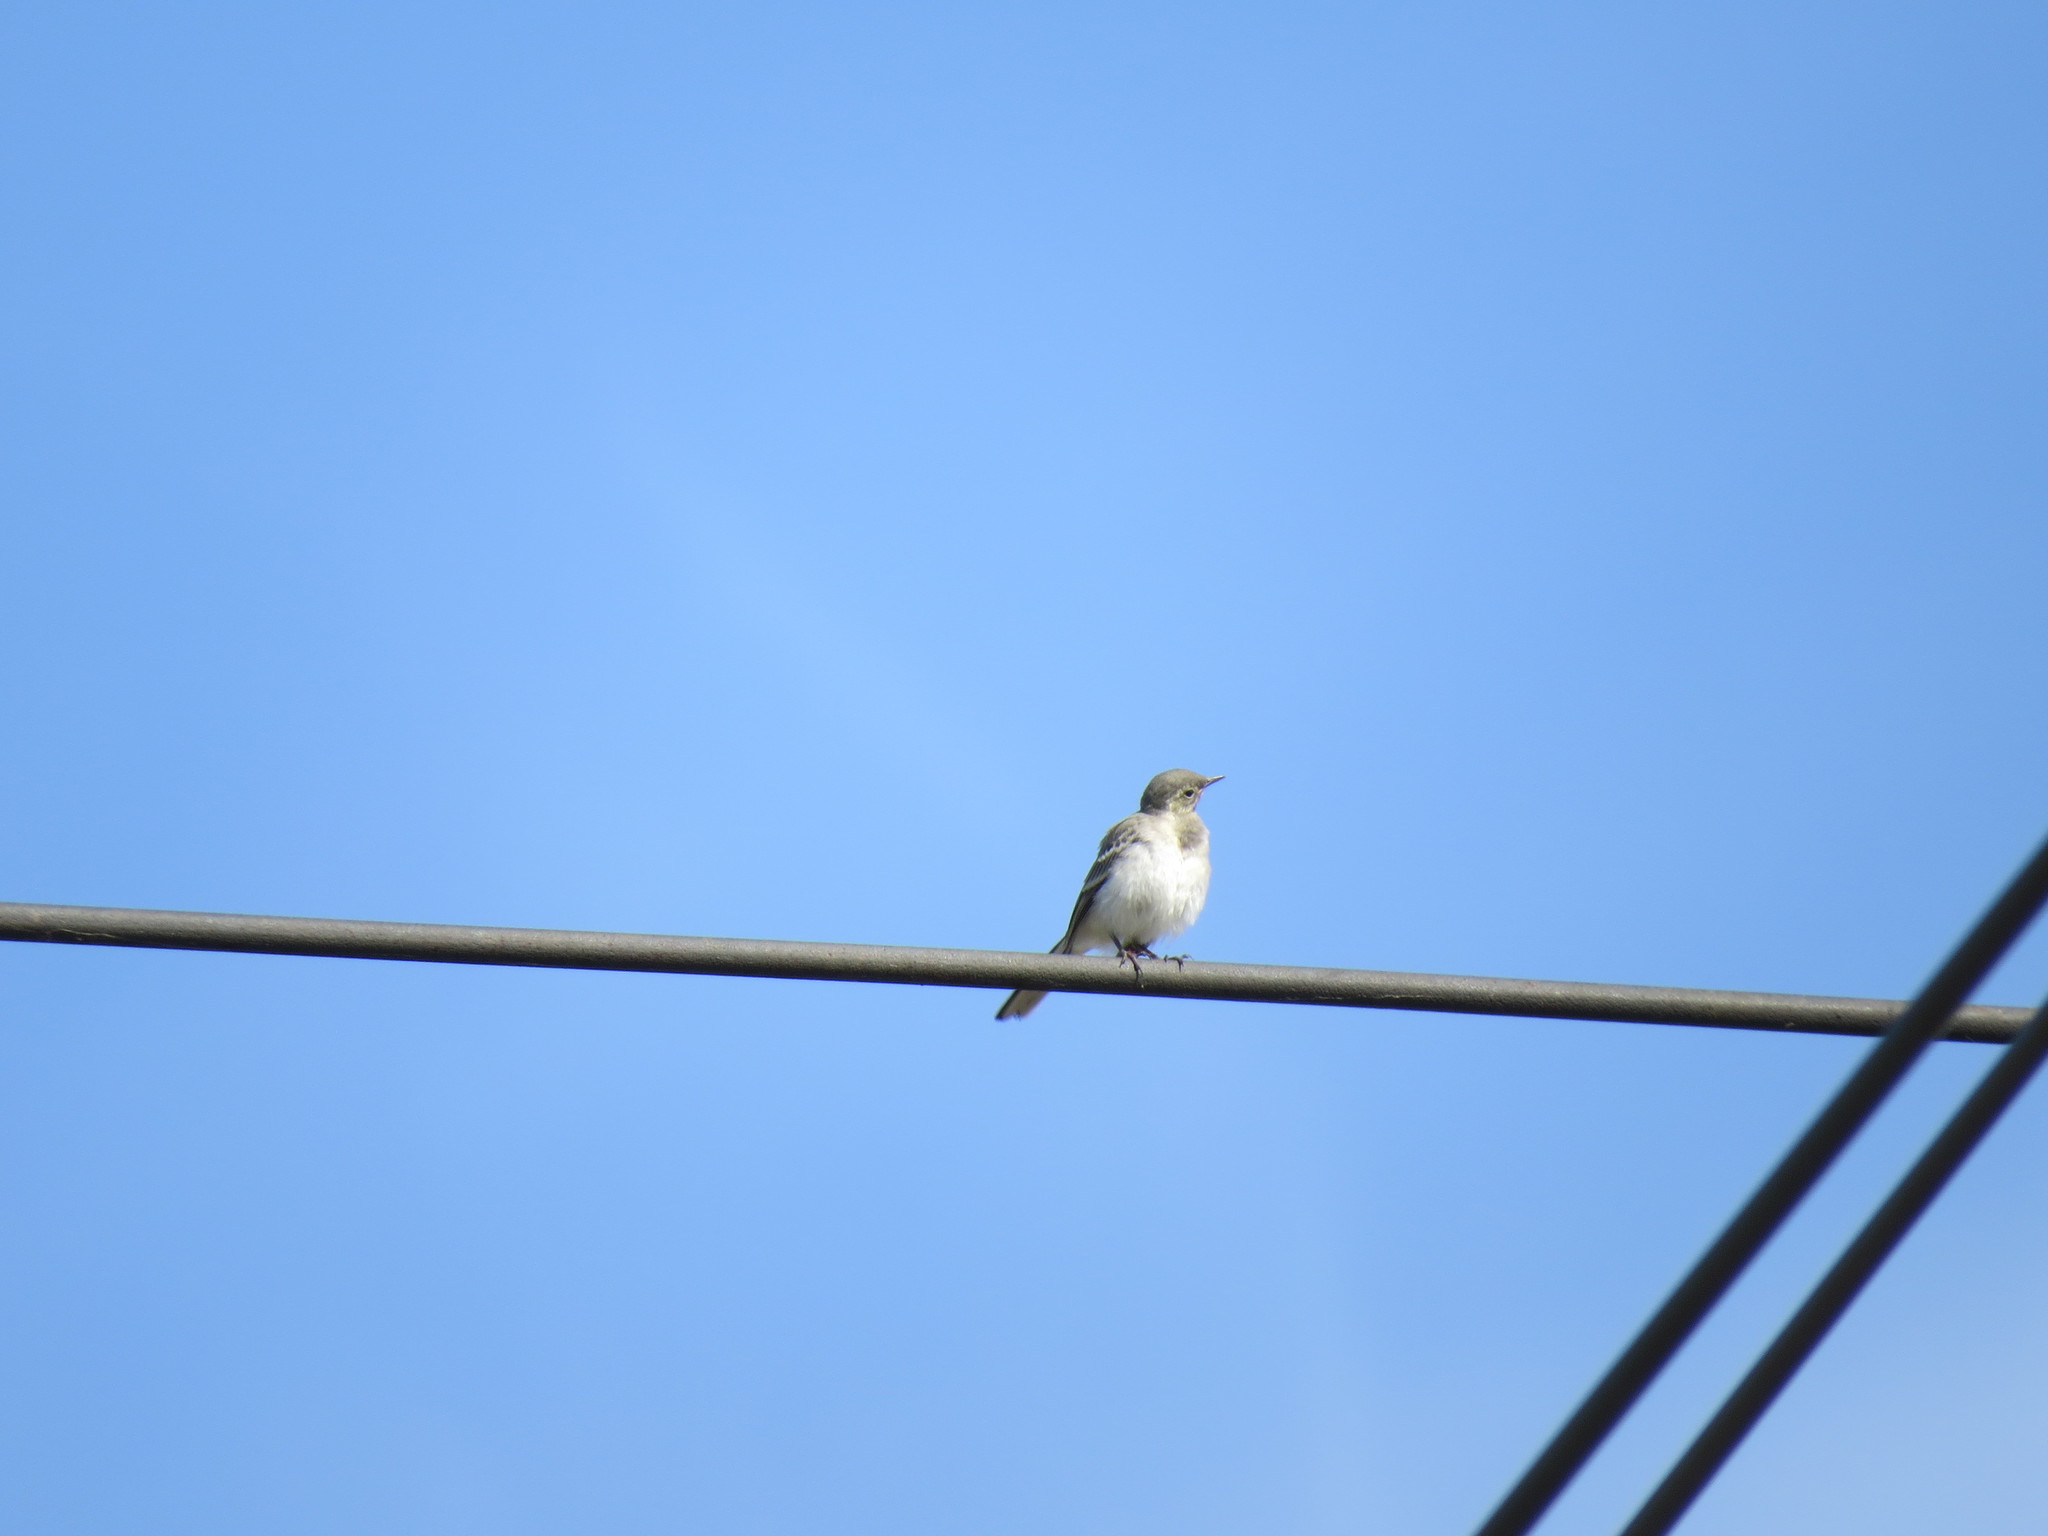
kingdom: Animalia
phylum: Chordata
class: Aves
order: Passeriformes
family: Motacillidae
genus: Motacilla
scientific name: Motacilla alba
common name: White wagtail
